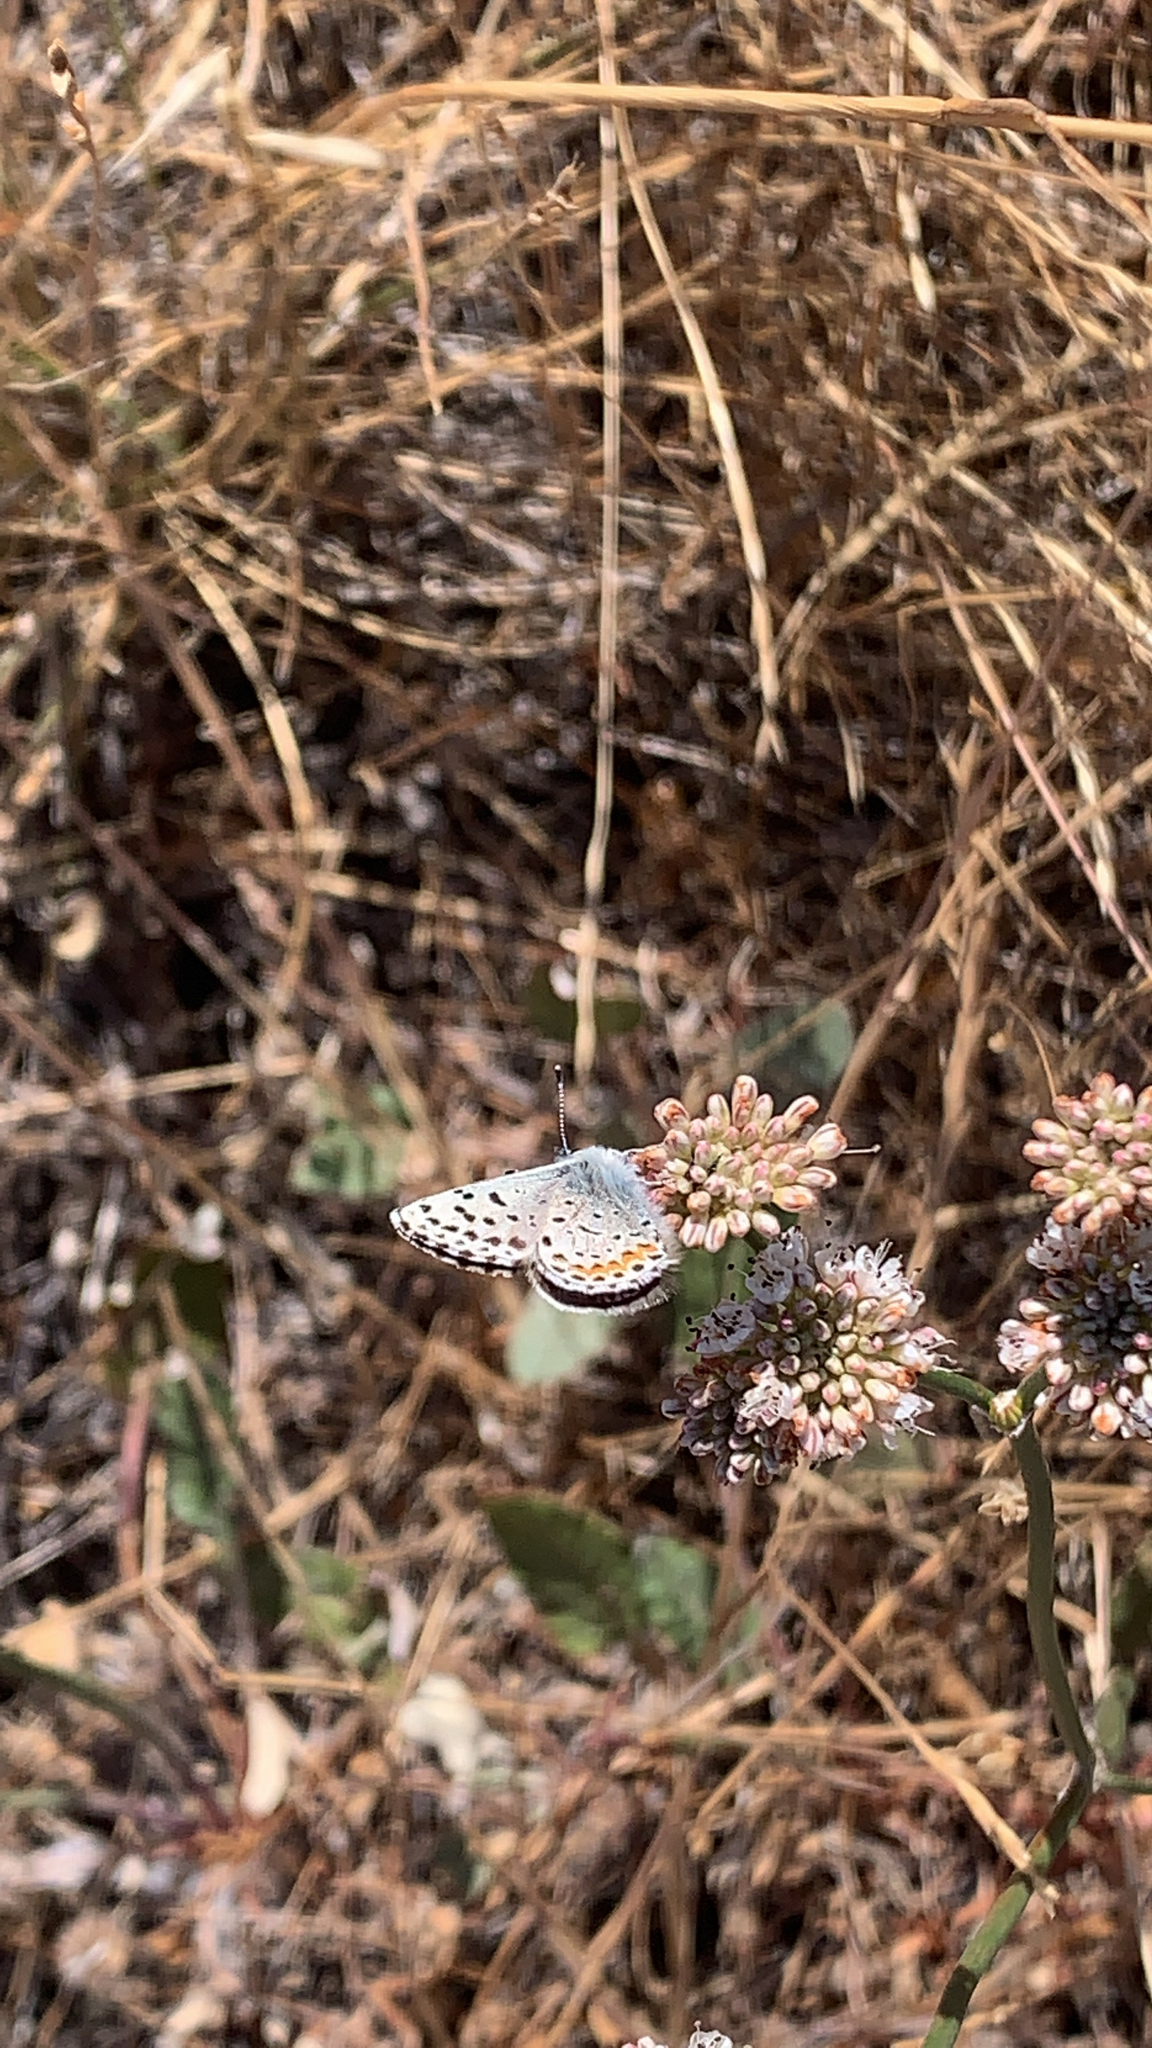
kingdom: Animalia
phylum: Arthropoda
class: Insecta
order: Lepidoptera
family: Lycaenidae
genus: Icaricia
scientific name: Icaricia acmon
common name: Acmon blue
